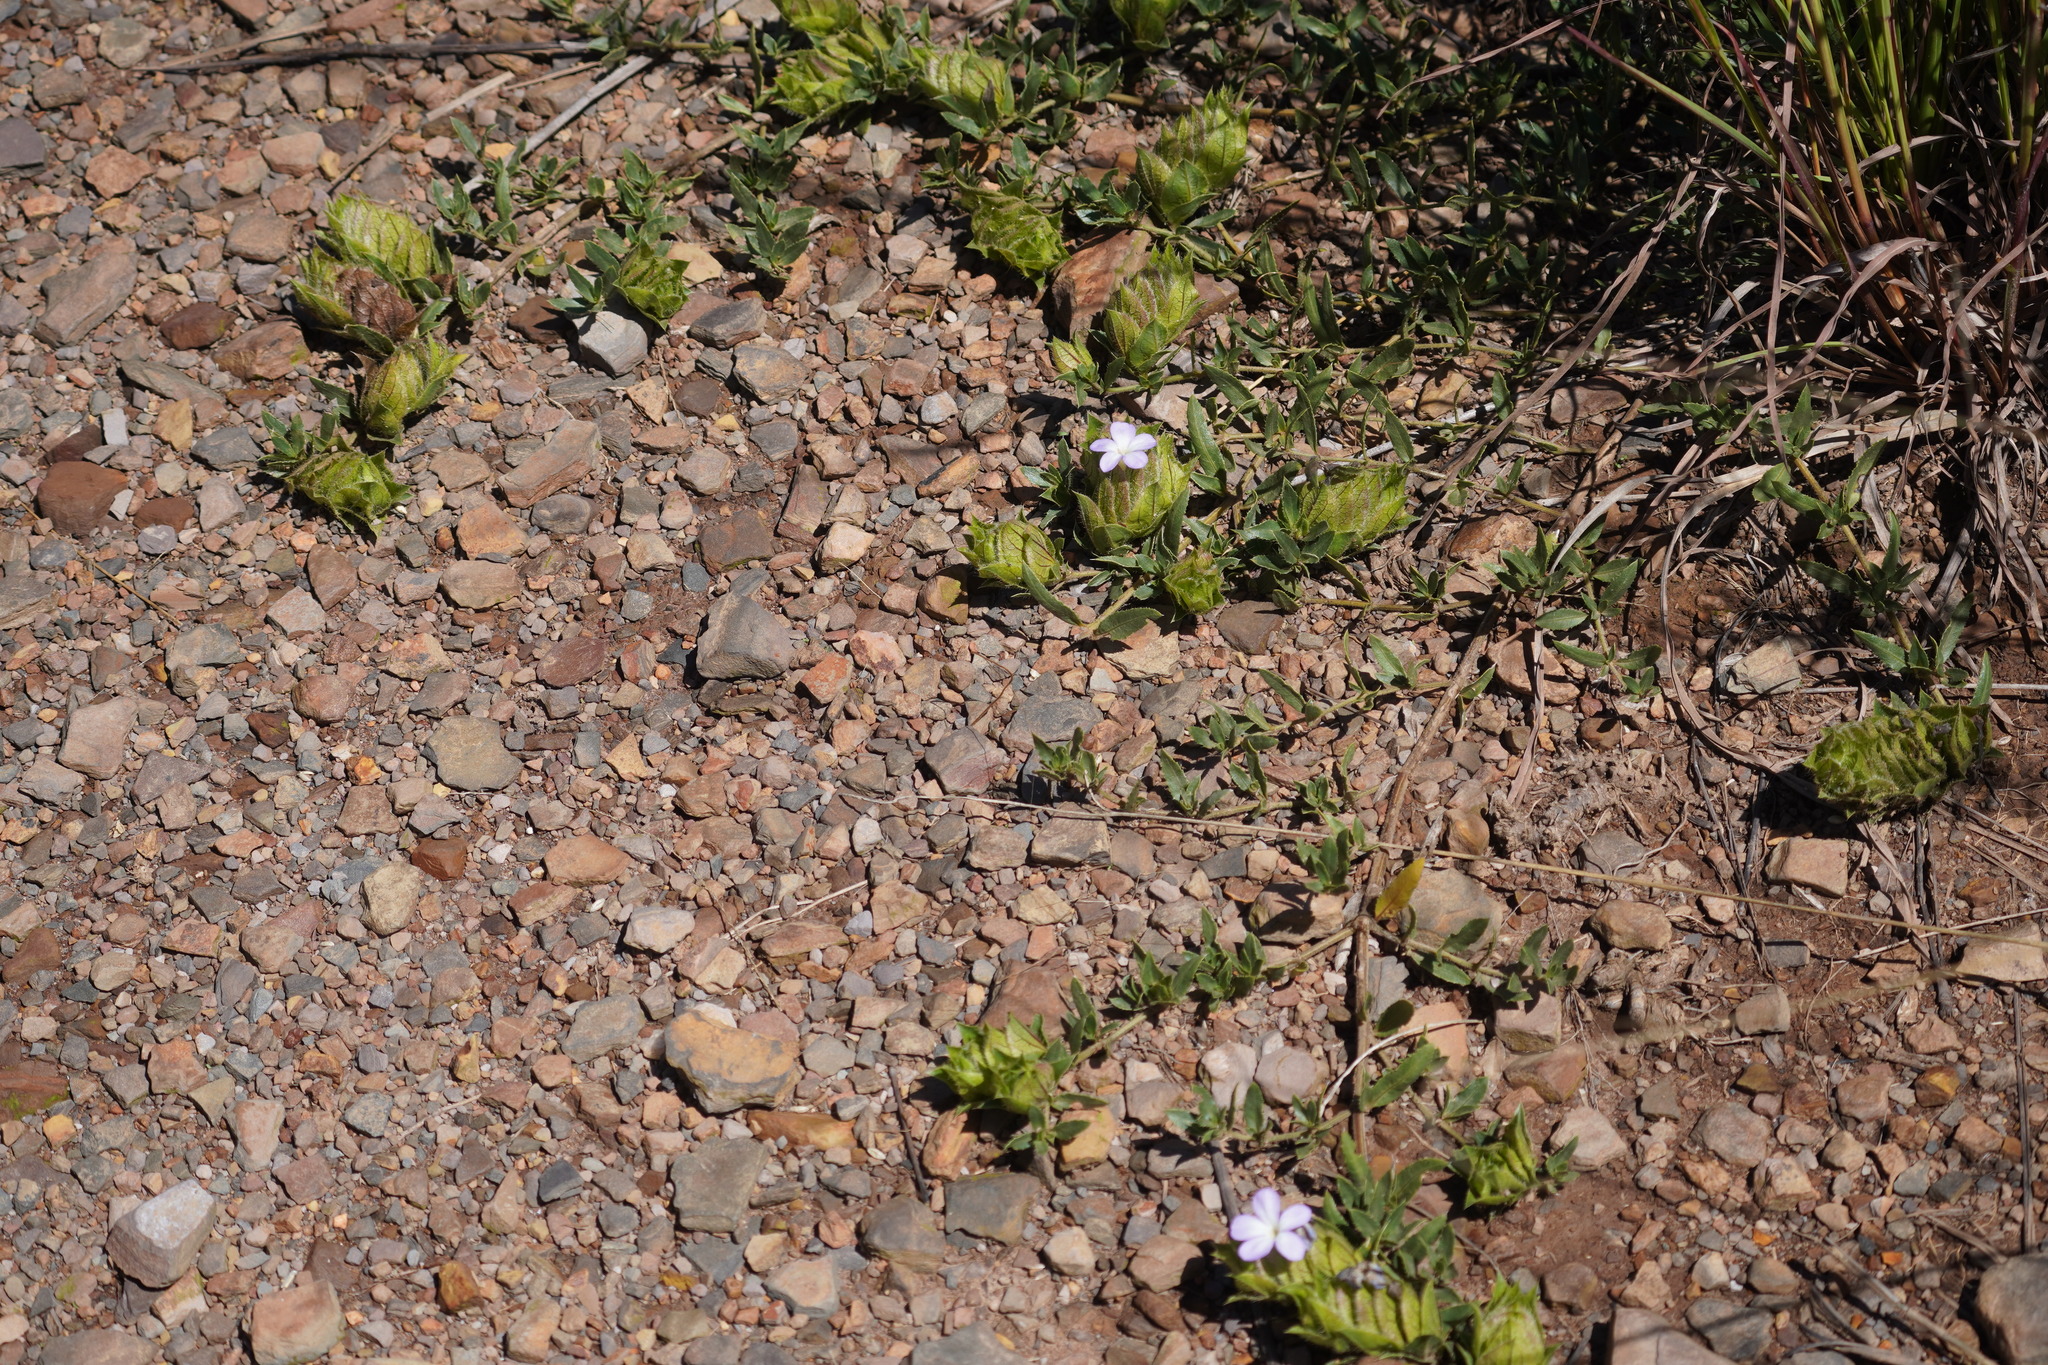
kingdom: Plantae
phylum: Tracheophyta
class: Magnoliopsida
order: Lamiales
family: Acanthaceae
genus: Barleria
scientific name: Barleria macrostegia
